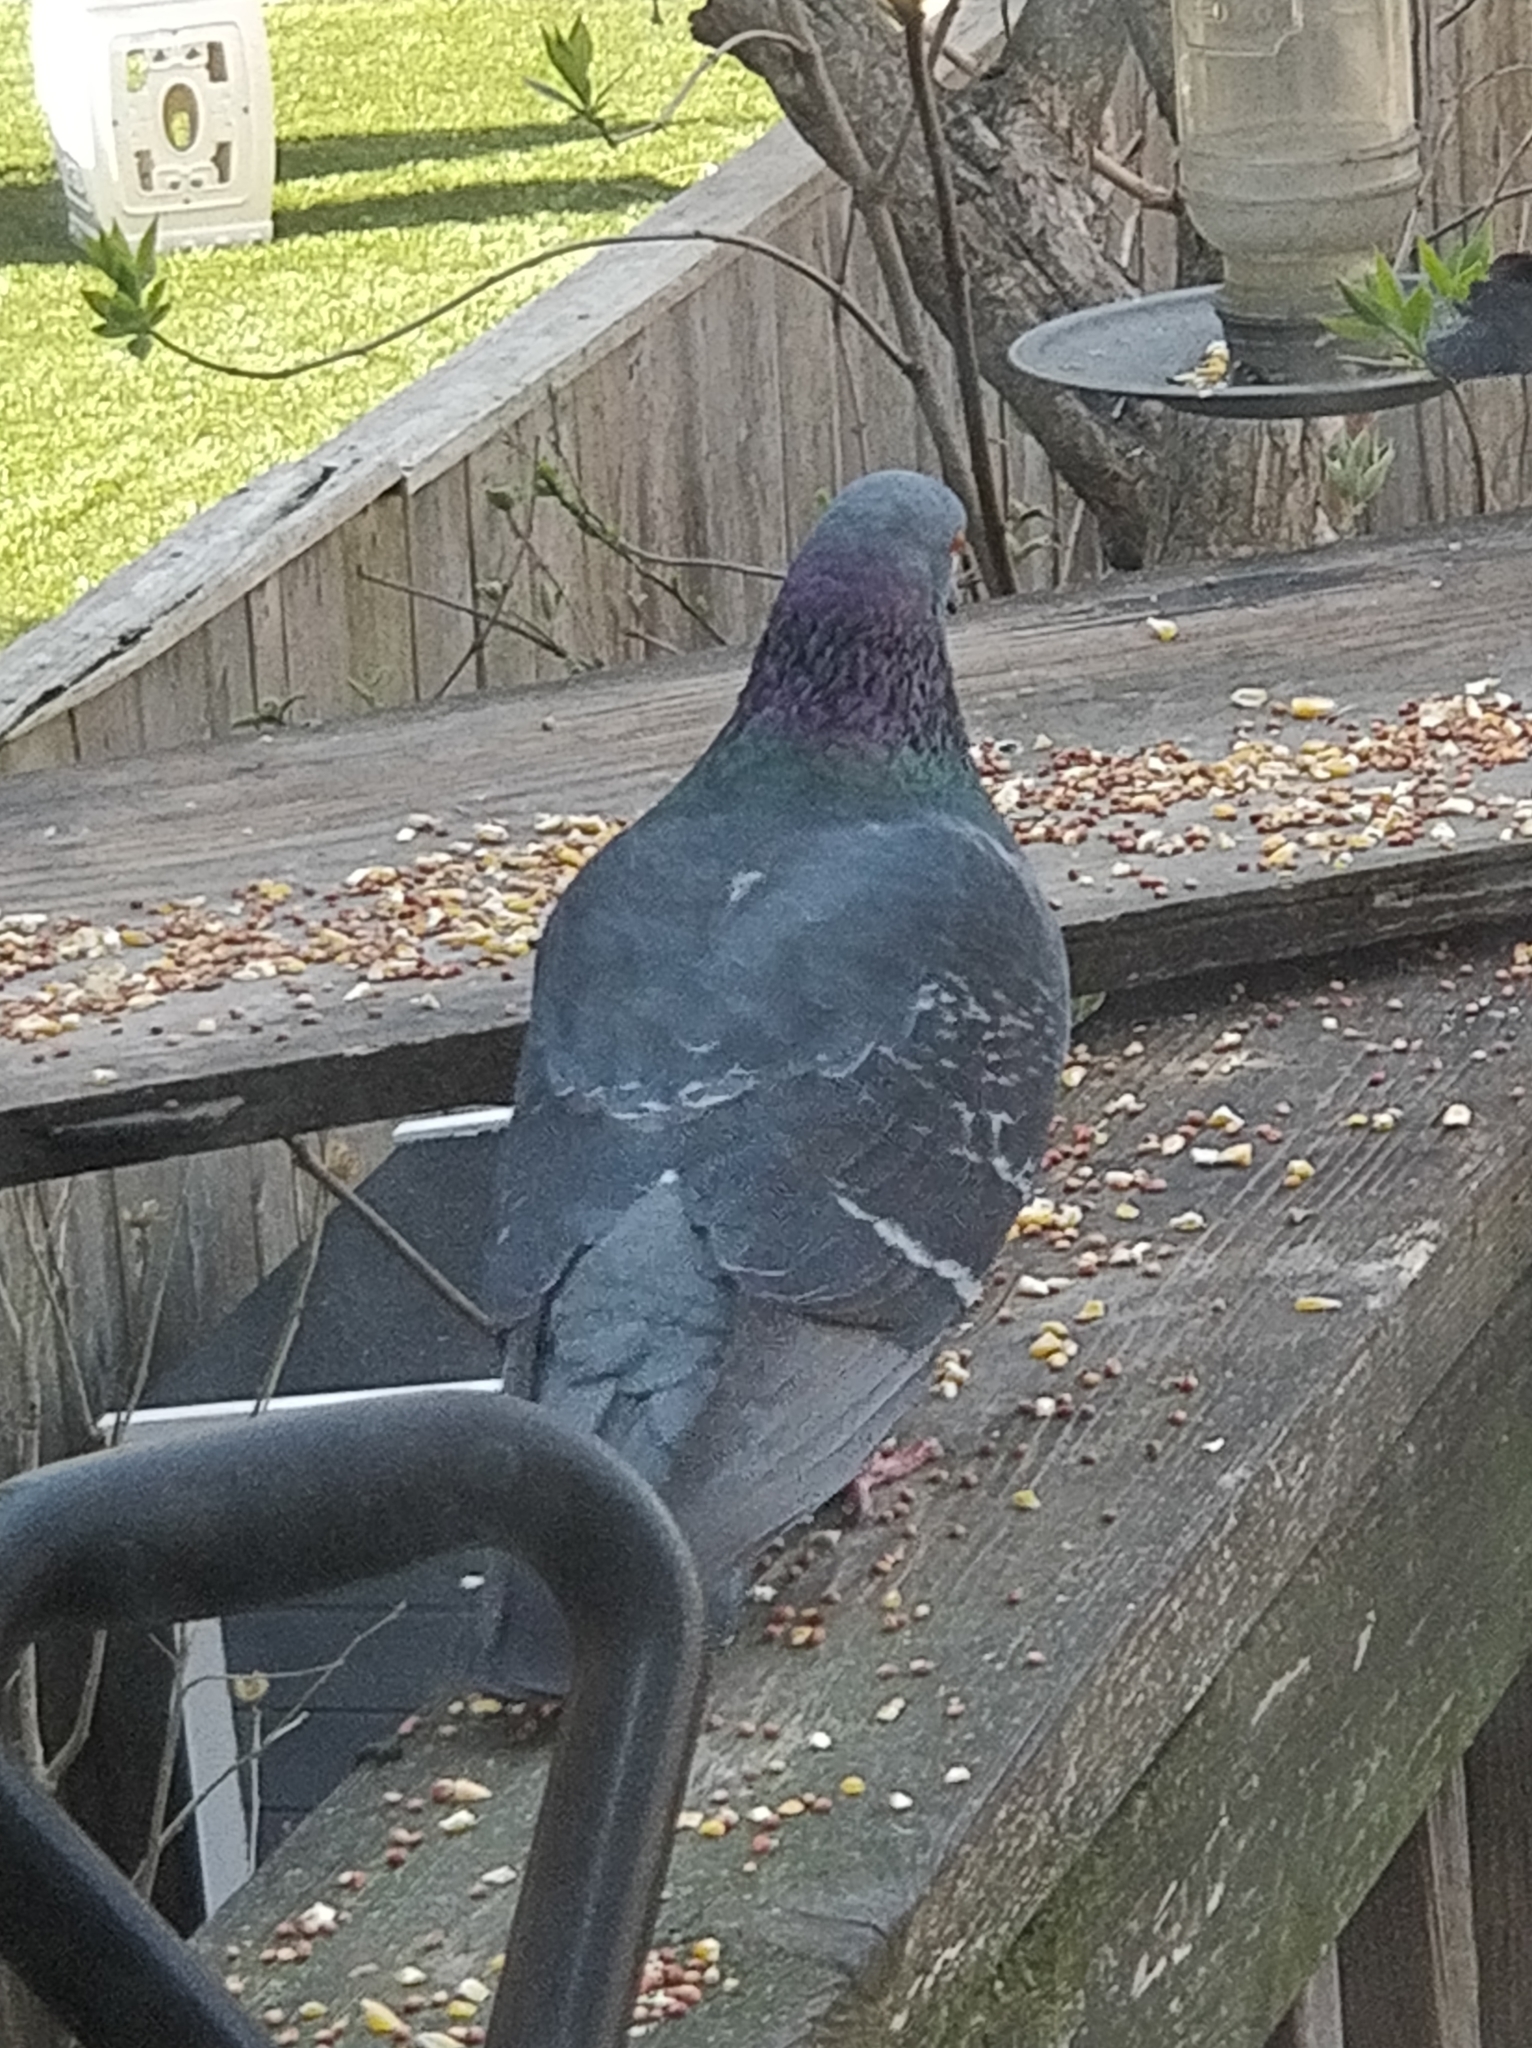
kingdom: Animalia
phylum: Chordata
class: Aves
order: Columbiformes
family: Columbidae
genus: Columba
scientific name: Columba livia
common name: Rock pigeon
